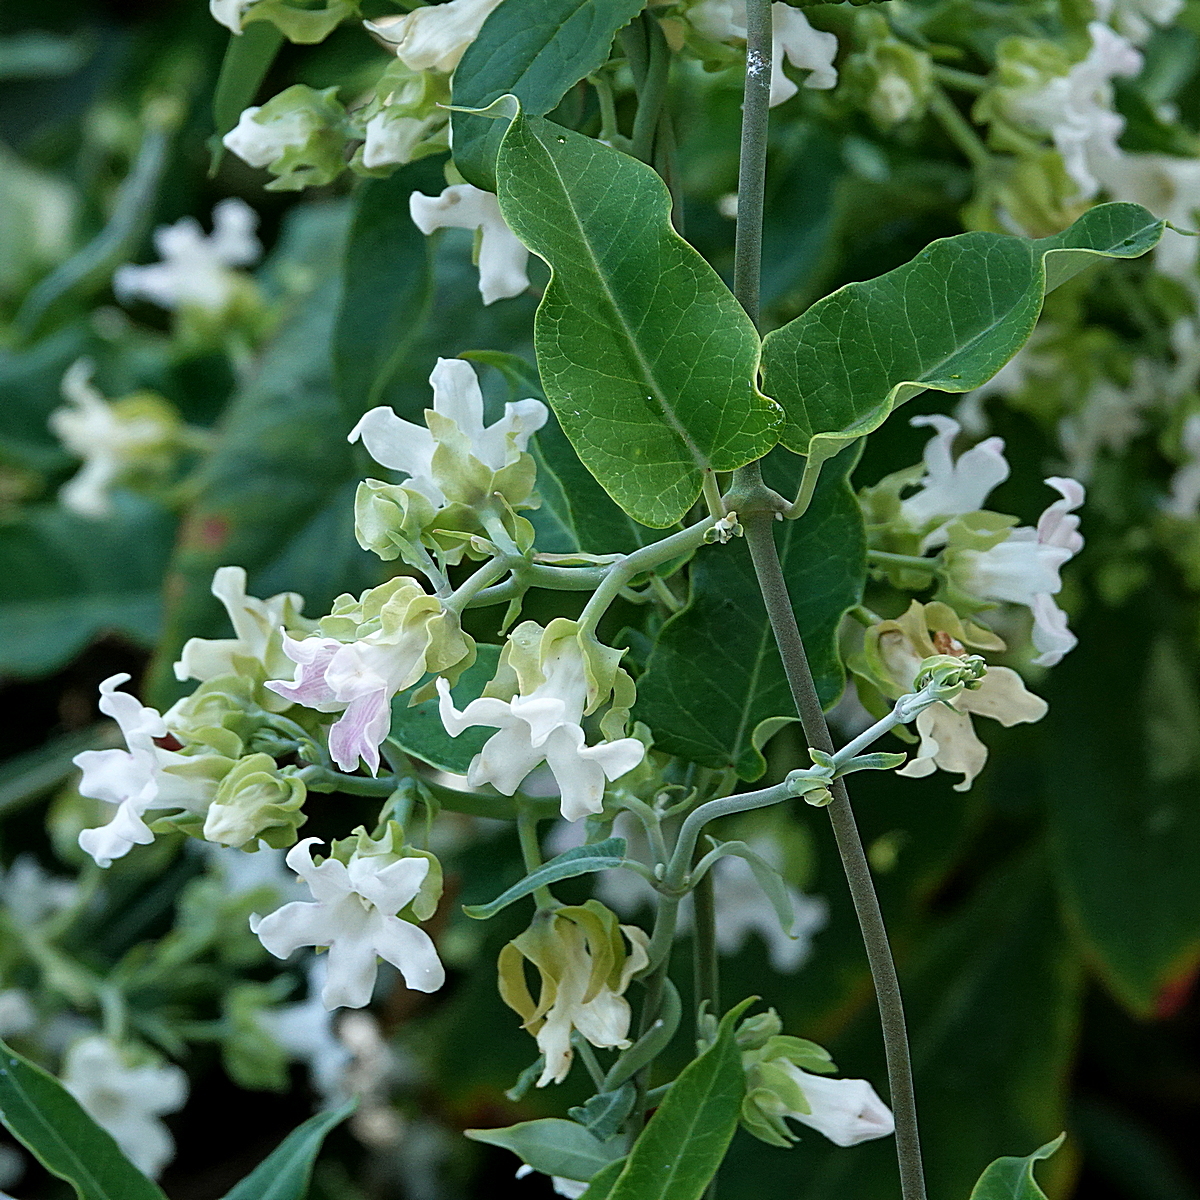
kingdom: Plantae
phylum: Tracheophyta
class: Magnoliopsida
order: Gentianales
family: Apocynaceae
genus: Araujia
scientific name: Araujia sericifera
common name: White bladderflower
